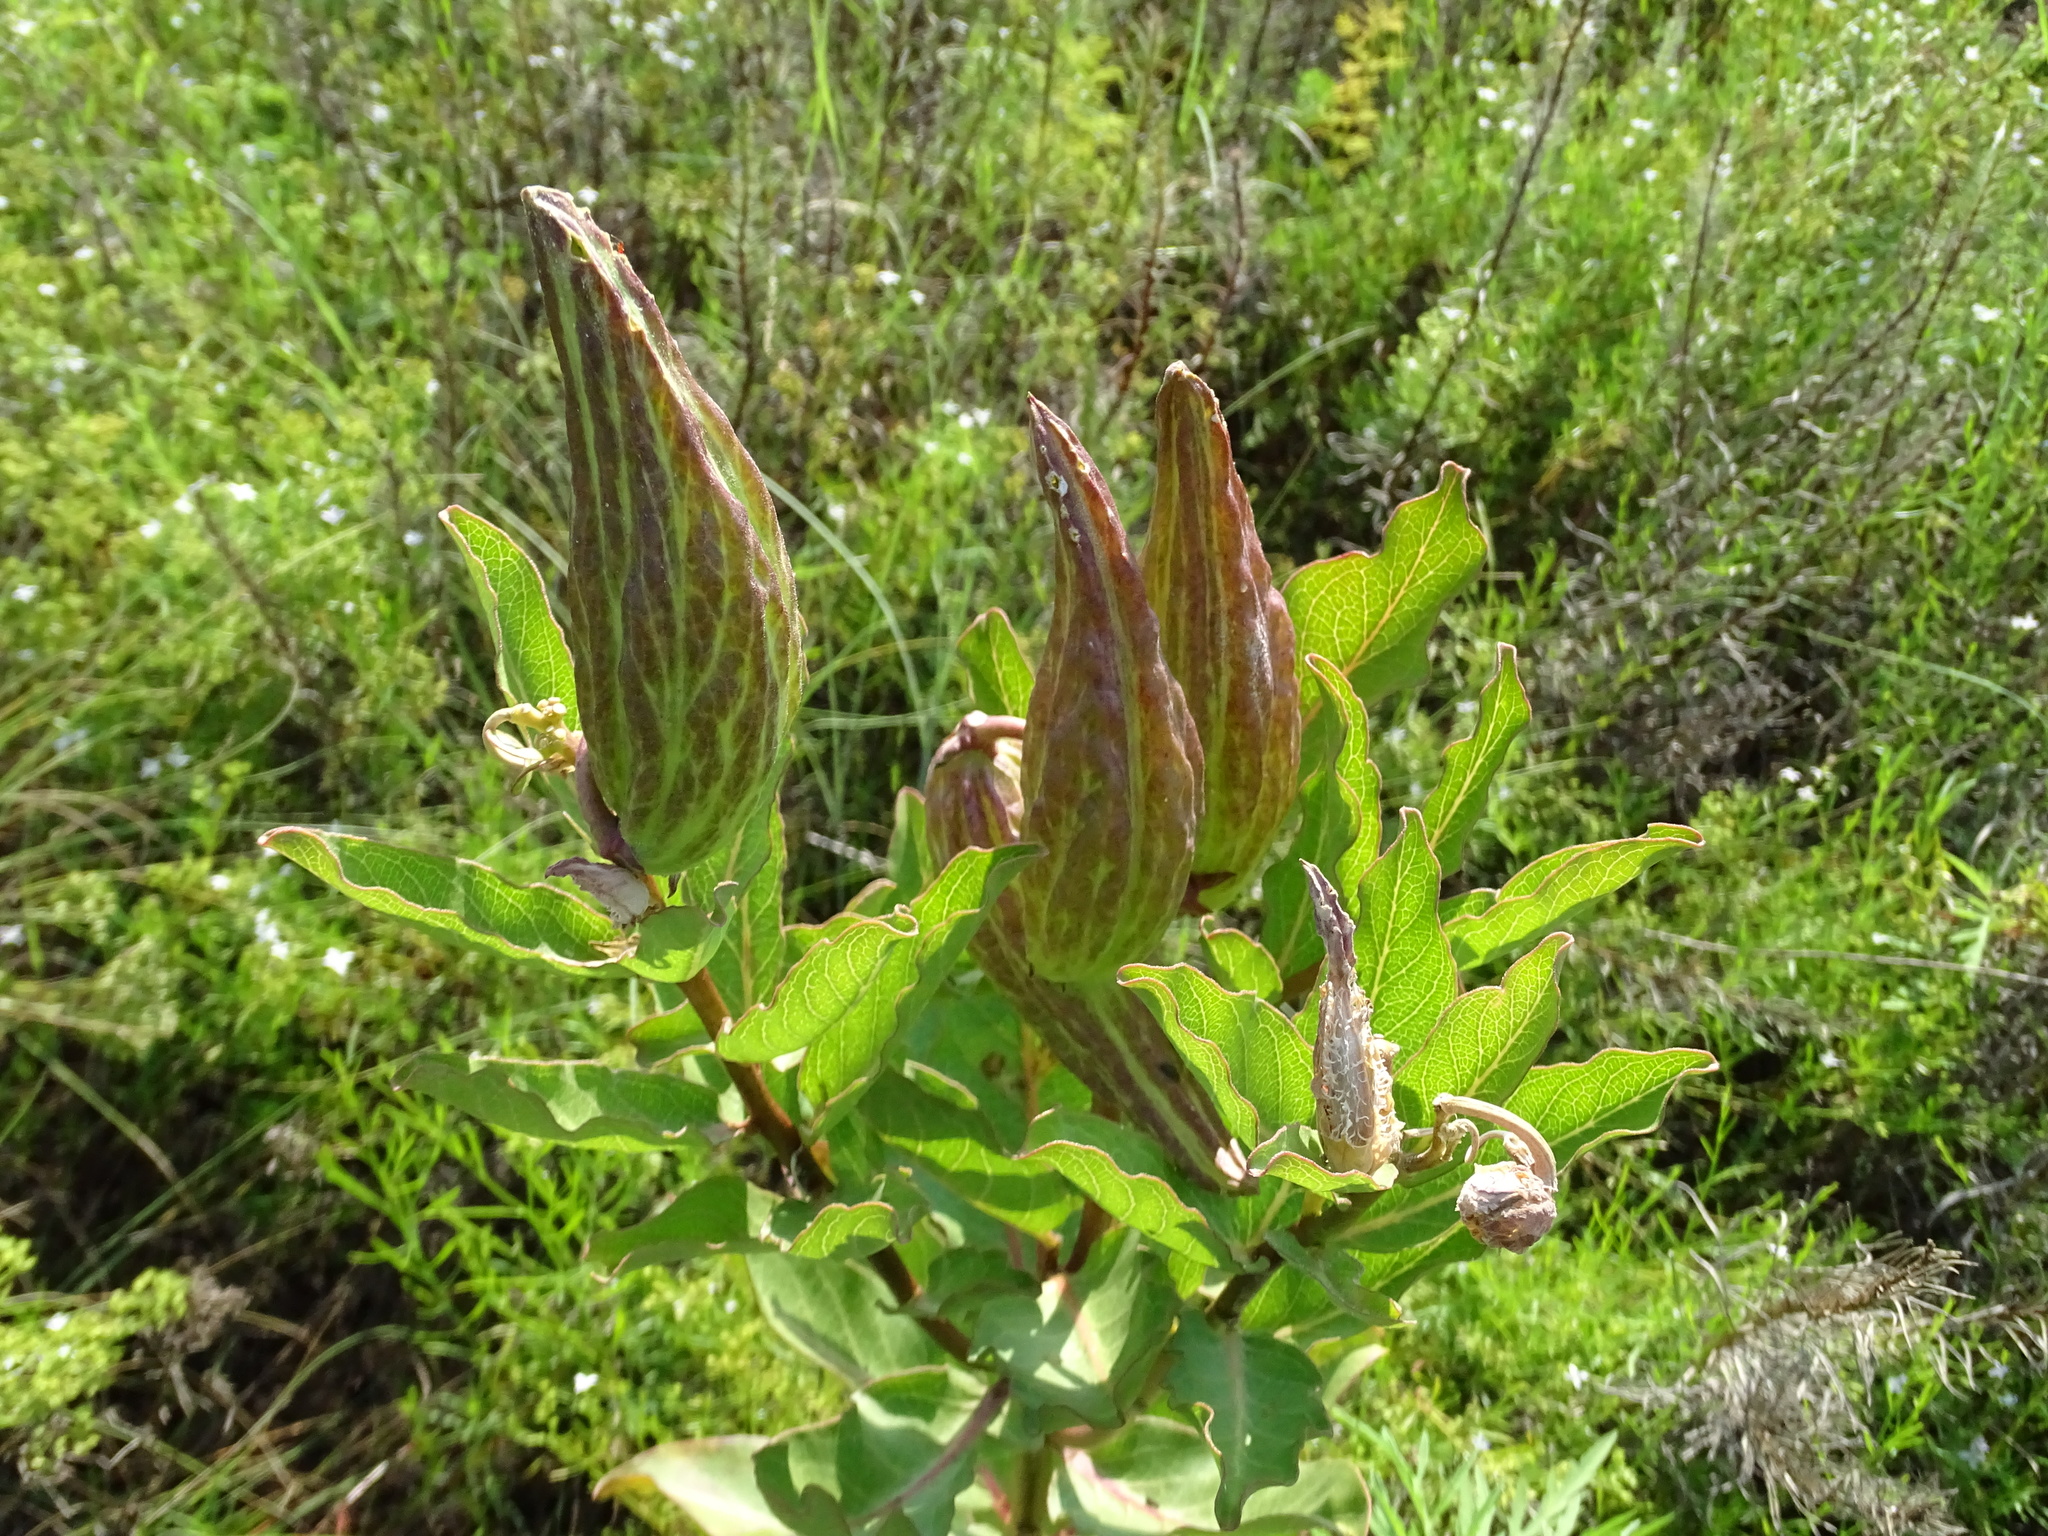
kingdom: Plantae
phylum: Tracheophyta
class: Magnoliopsida
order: Gentianales
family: Apocynaceae
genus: Asclepias
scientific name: Asclepias viridis
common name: Antelope-horns
